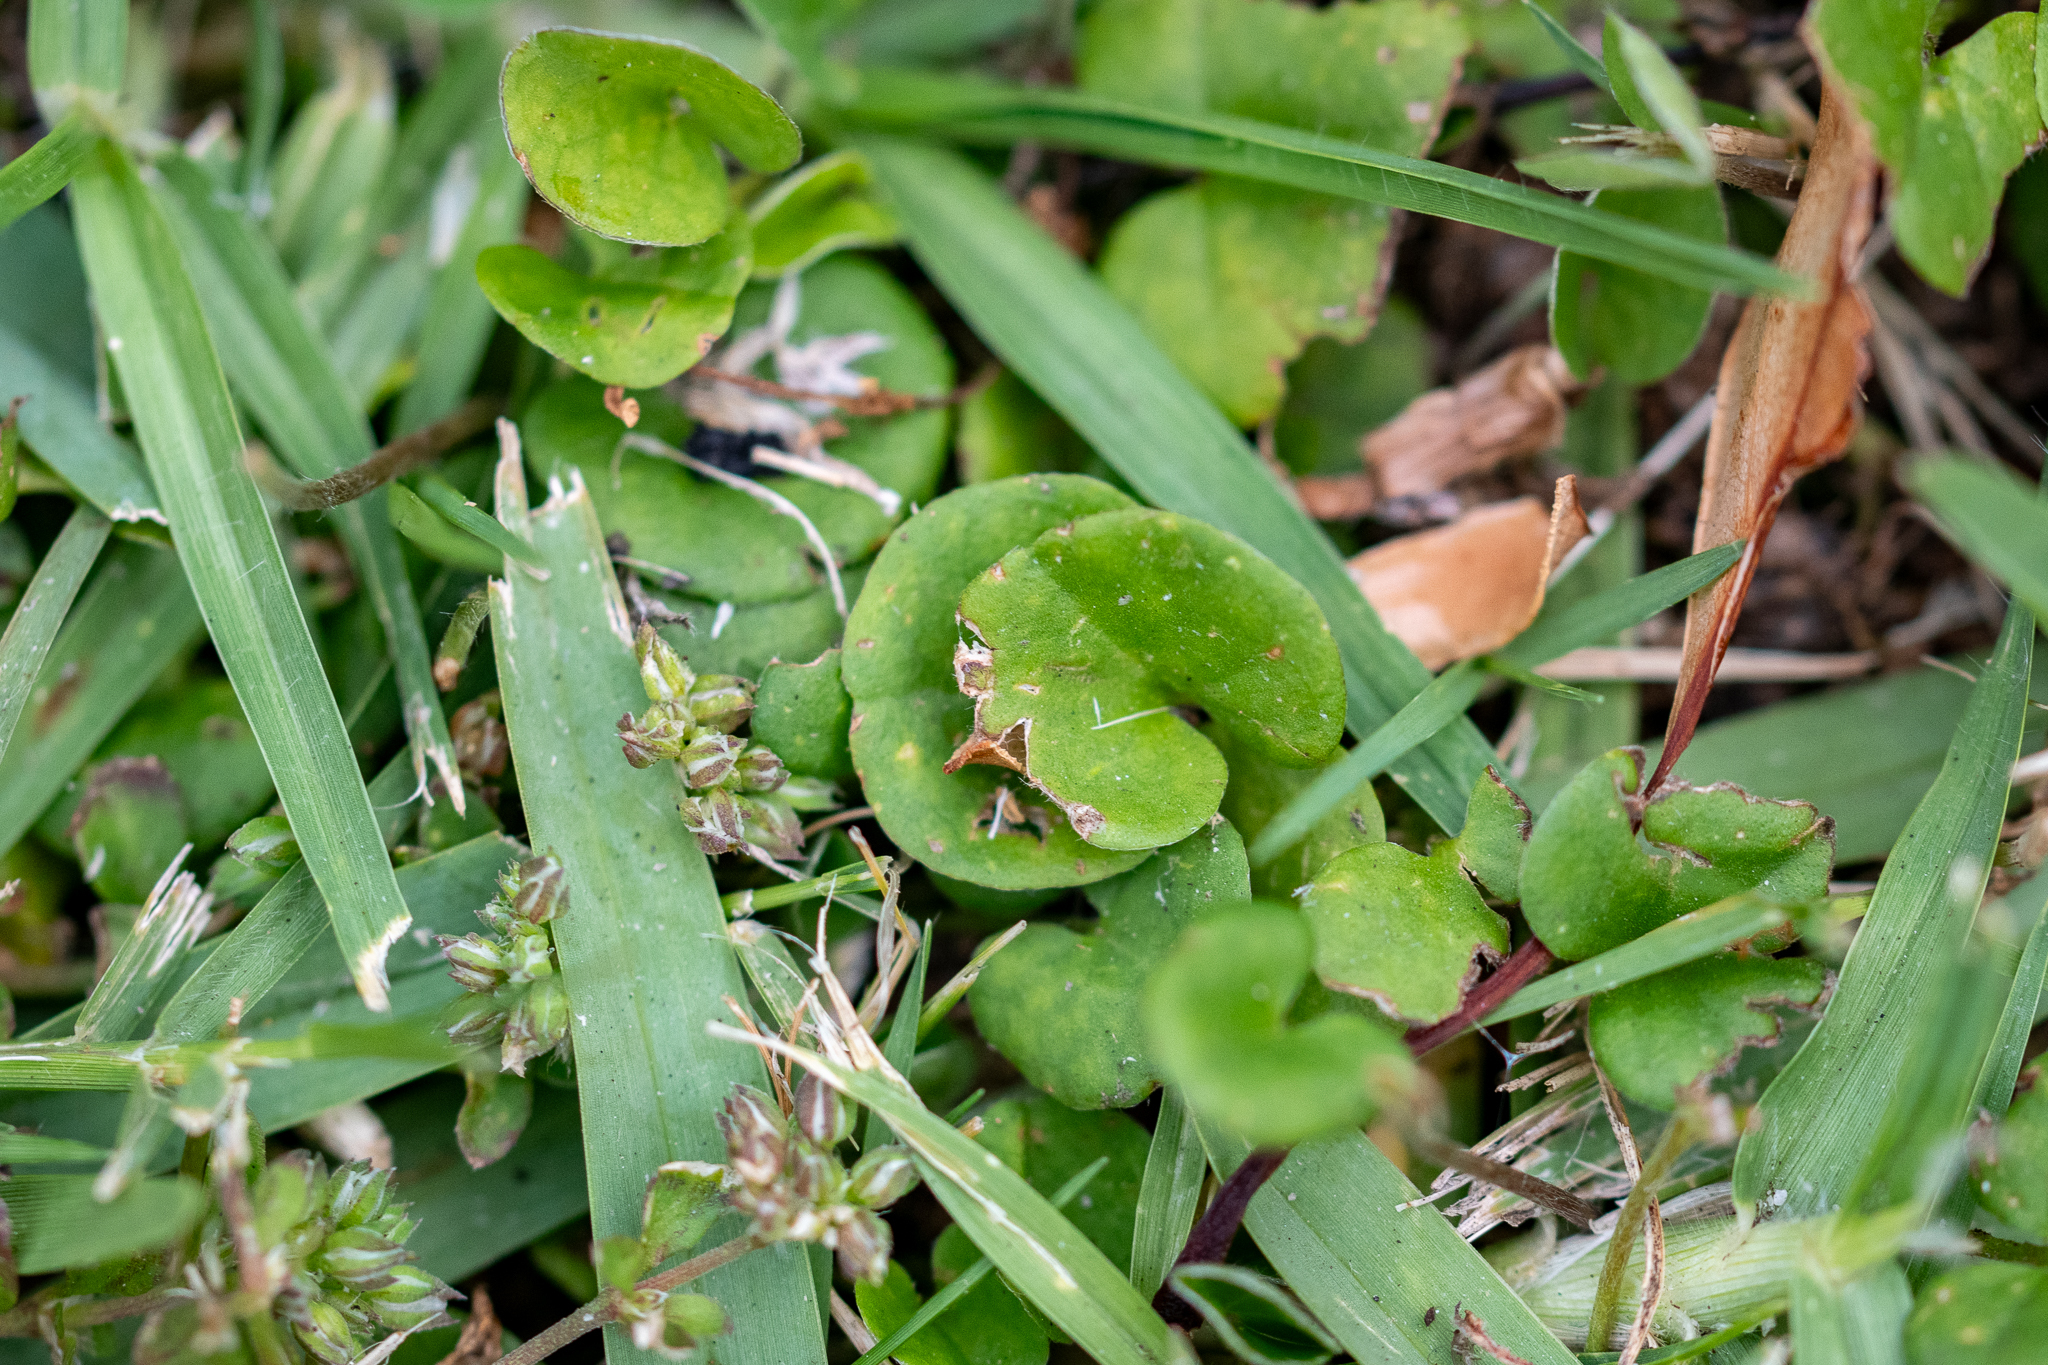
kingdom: Plantae
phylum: Tracheophyta
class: Magnoliopsida
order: Solanales
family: Convolvulaceae
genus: Dichondra
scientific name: Dichondra micrantha
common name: Kidneyweed
